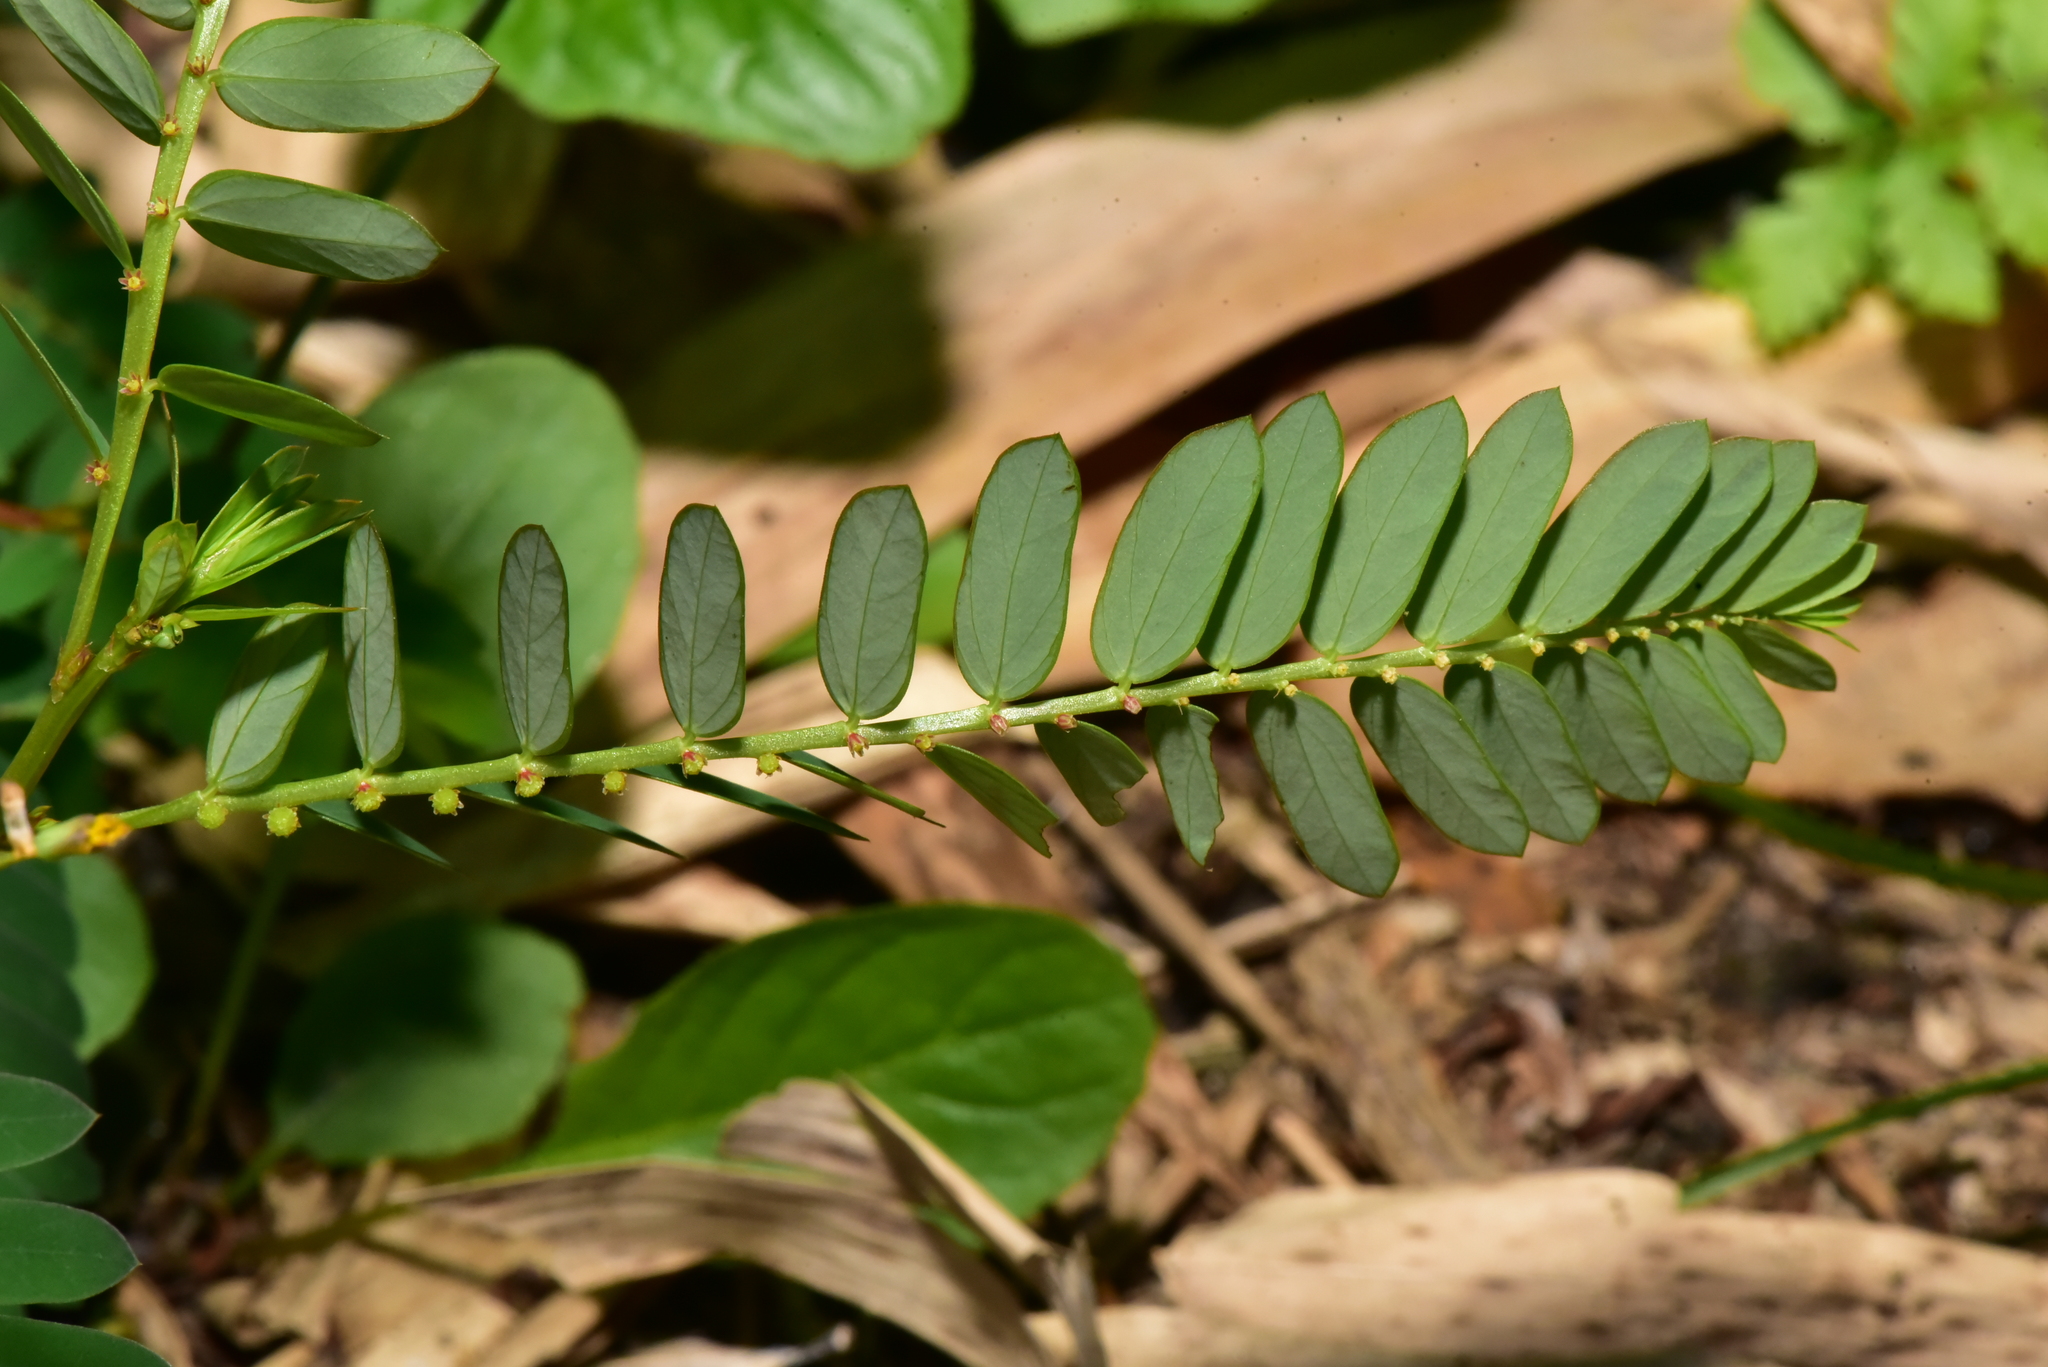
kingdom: Plantae
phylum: Tracheophyta
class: Magnoliopsida
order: Malpighiales
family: Phyllanthaceae
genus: Phyllanthus
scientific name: Phyllanthus urinaria
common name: Chamber bitter
